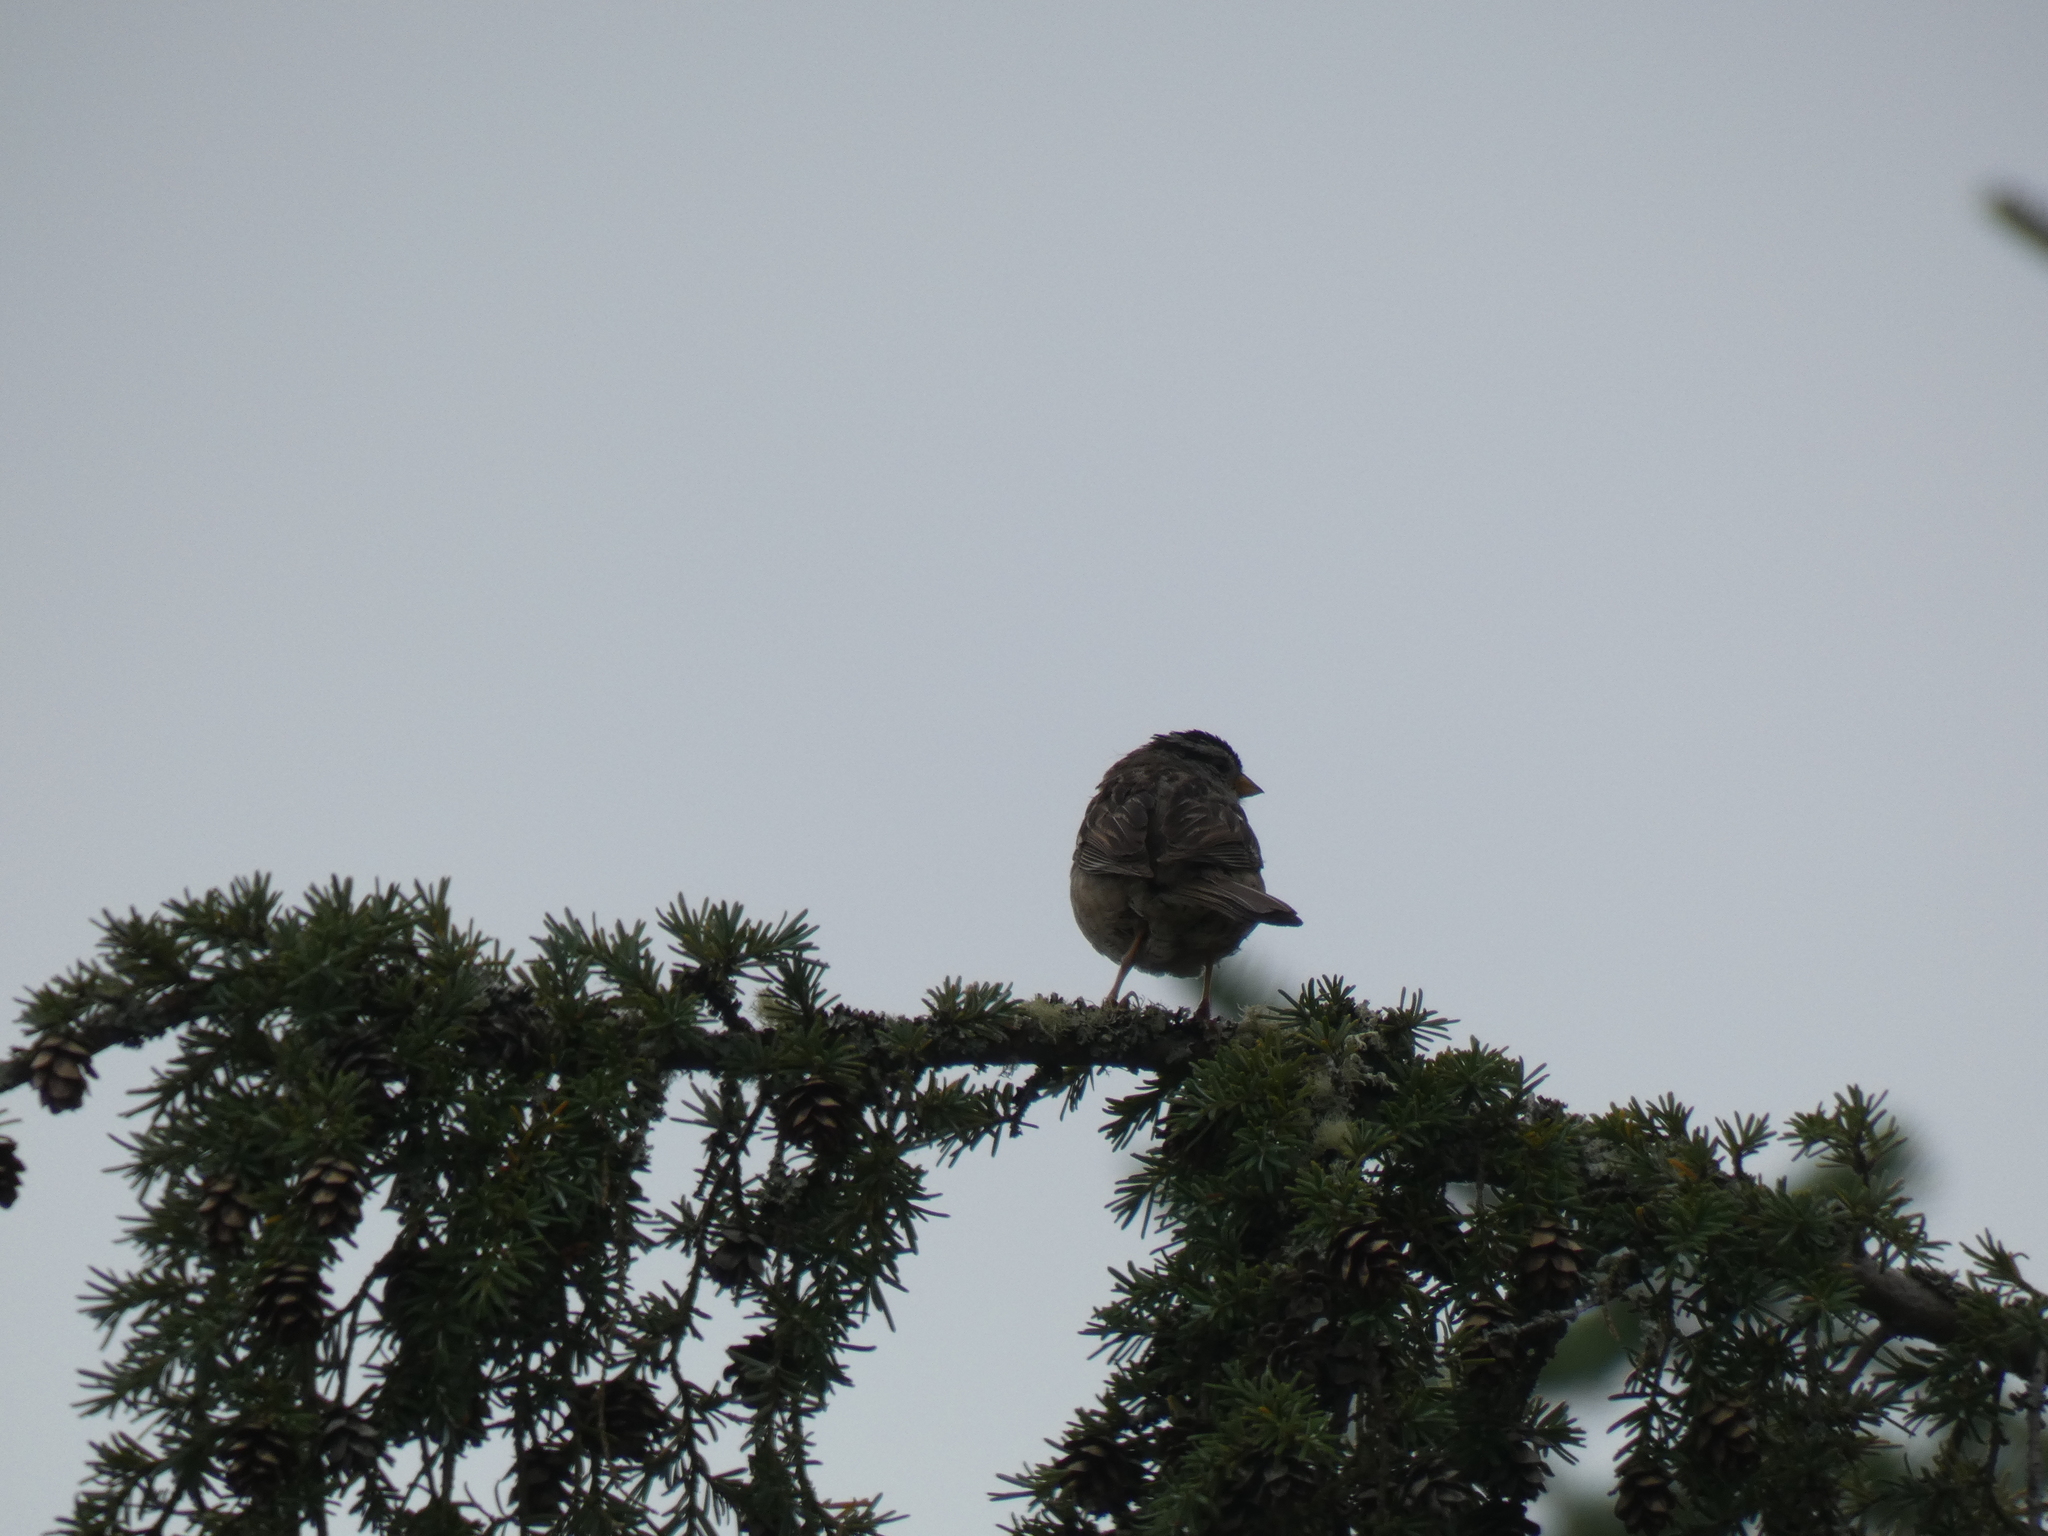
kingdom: Animalia
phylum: Chordata
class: Aves
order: Passeriformes
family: Passerellidae
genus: Zonotrichia
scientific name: Zonotrichia leucophrys
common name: White-crowned sparrow
